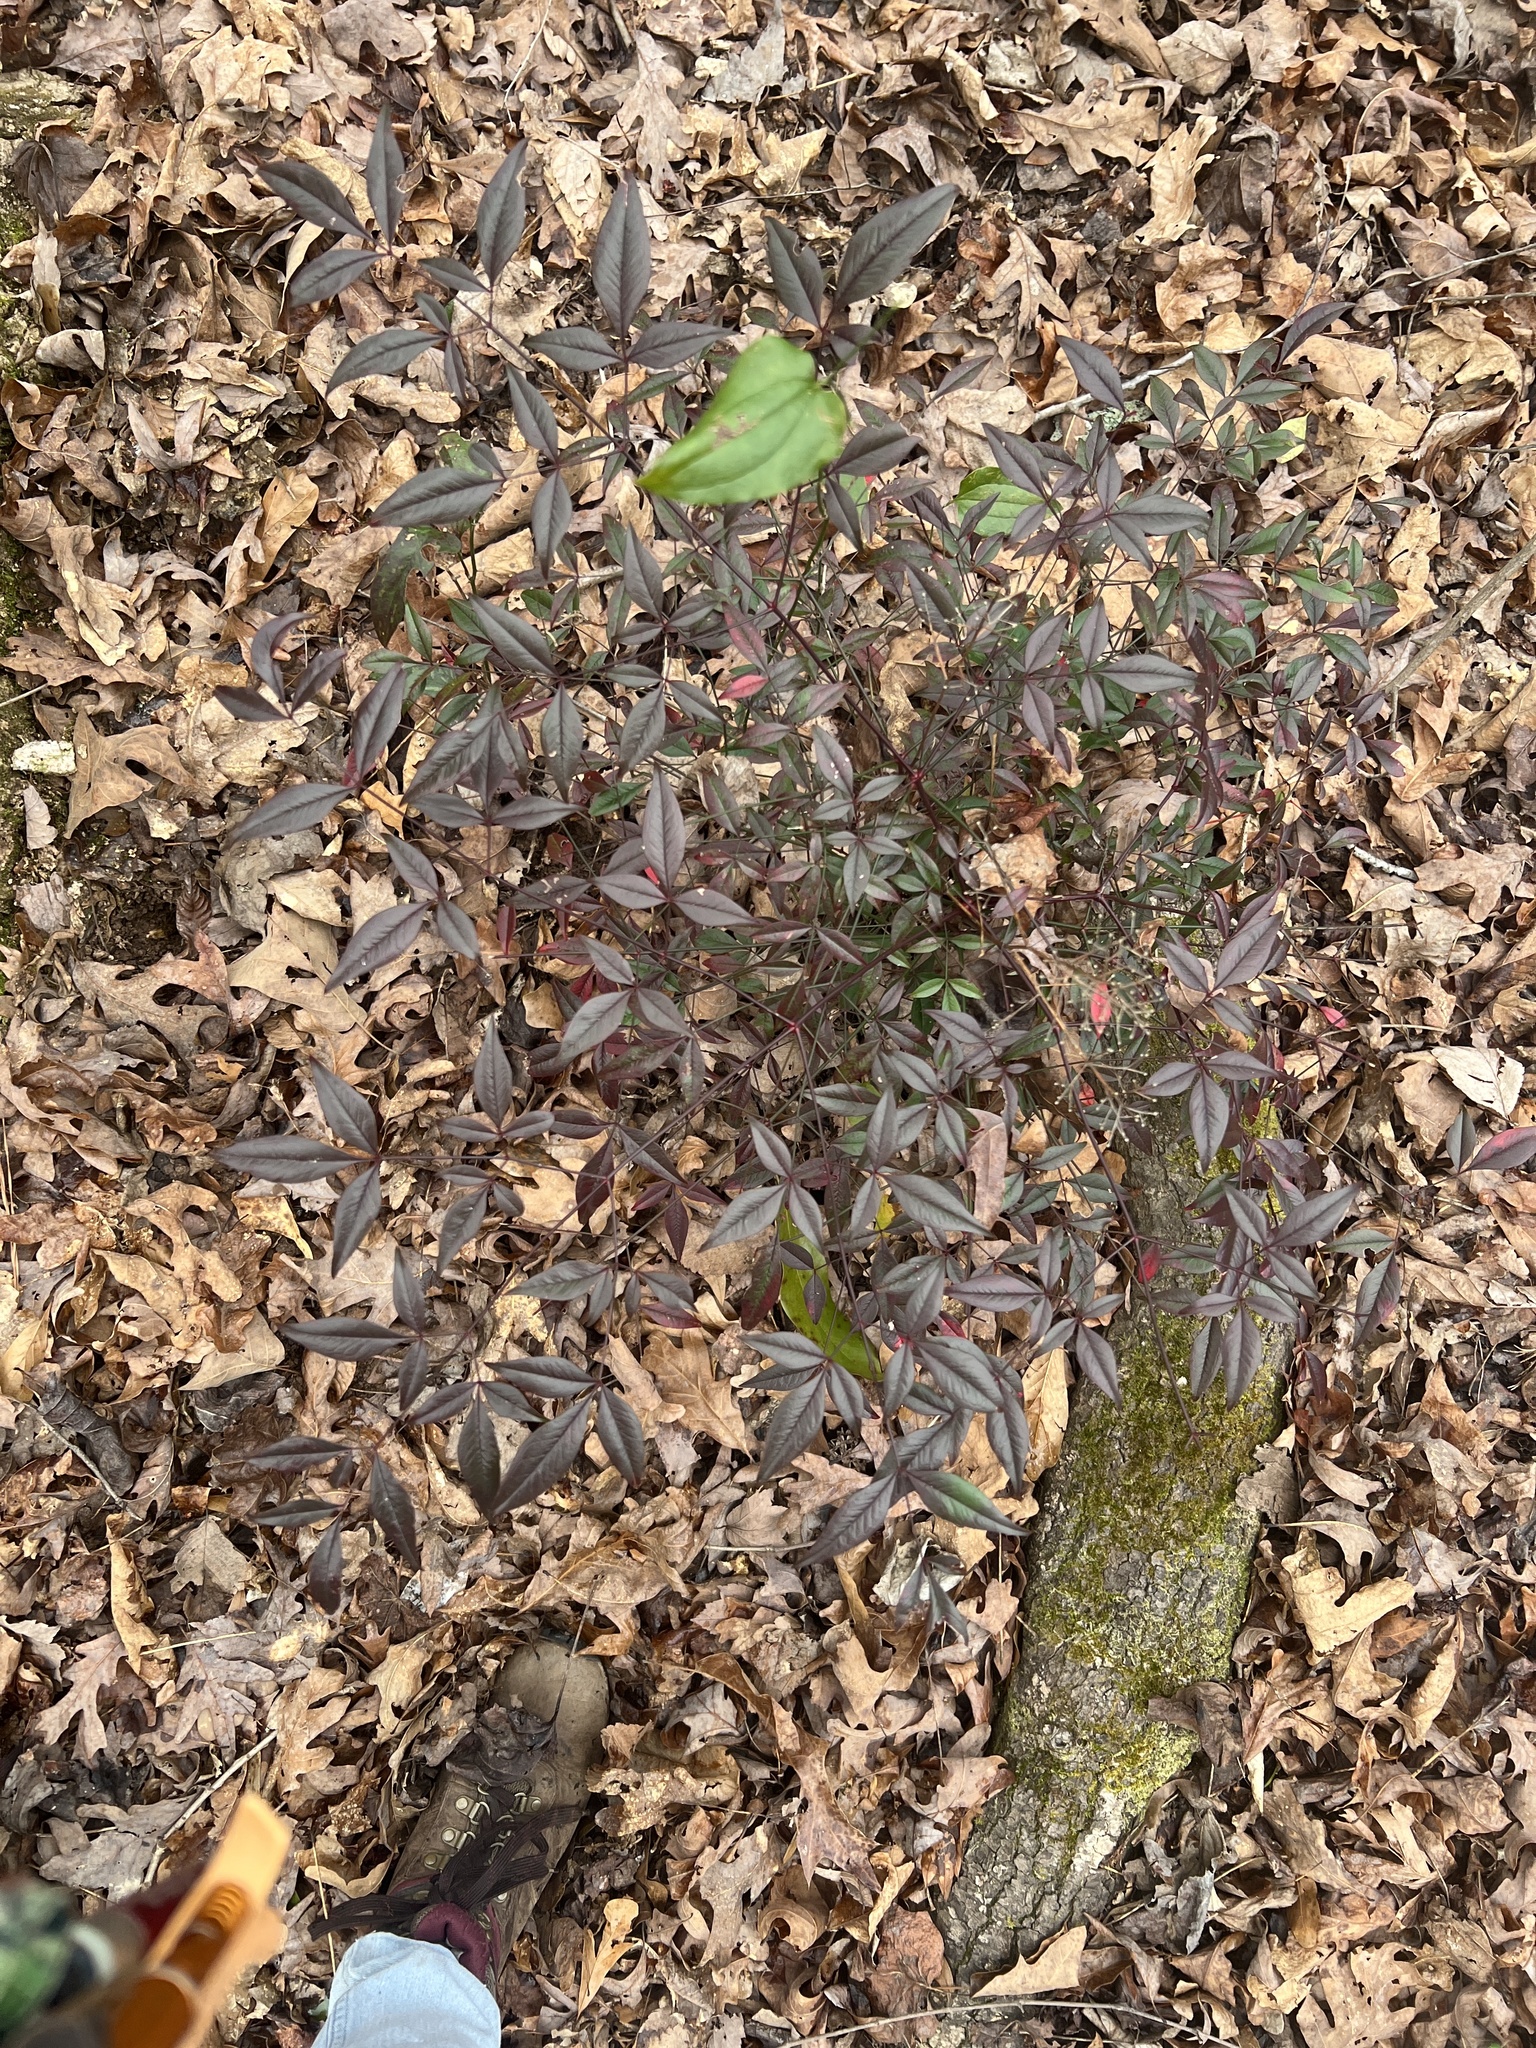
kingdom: Plantae
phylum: Tracheophyta
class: Magnoliopsida
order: Ranunculales
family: Berberidaceae
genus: Nandina
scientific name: Nandina domestica
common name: Sacred bamboo
